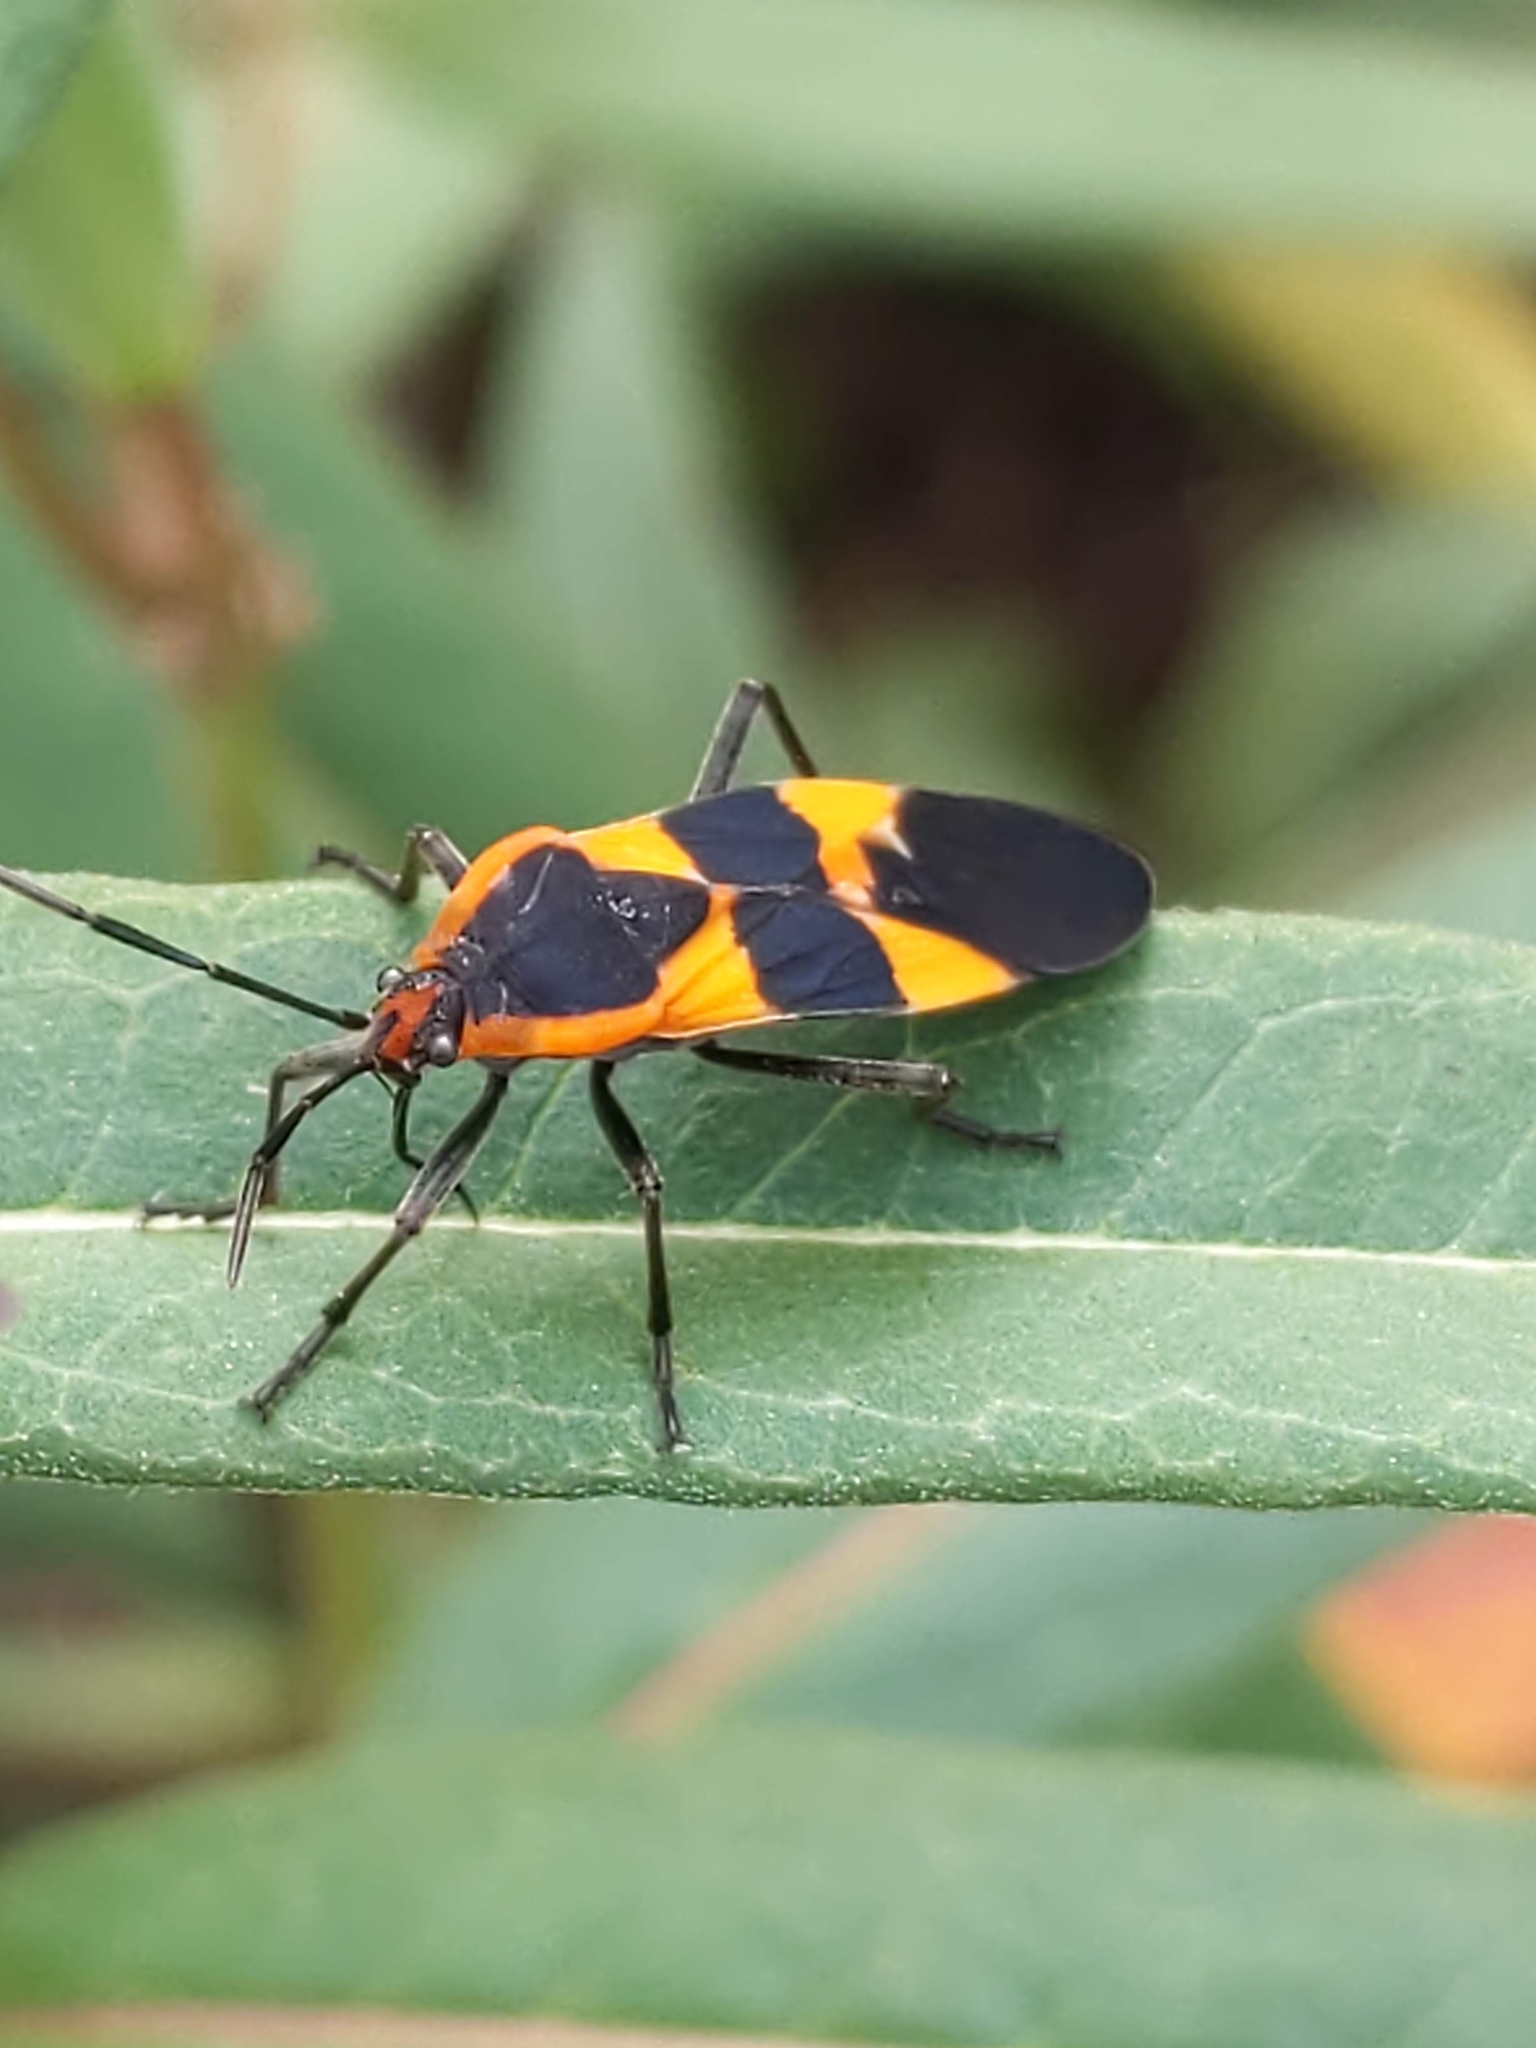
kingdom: Animalia
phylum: Arthropoda
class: Insecta
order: Hemiptera
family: Lygaeidae
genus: Oncopeltus
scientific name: Oncopeltus fasciatus
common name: Large milkweed bug
